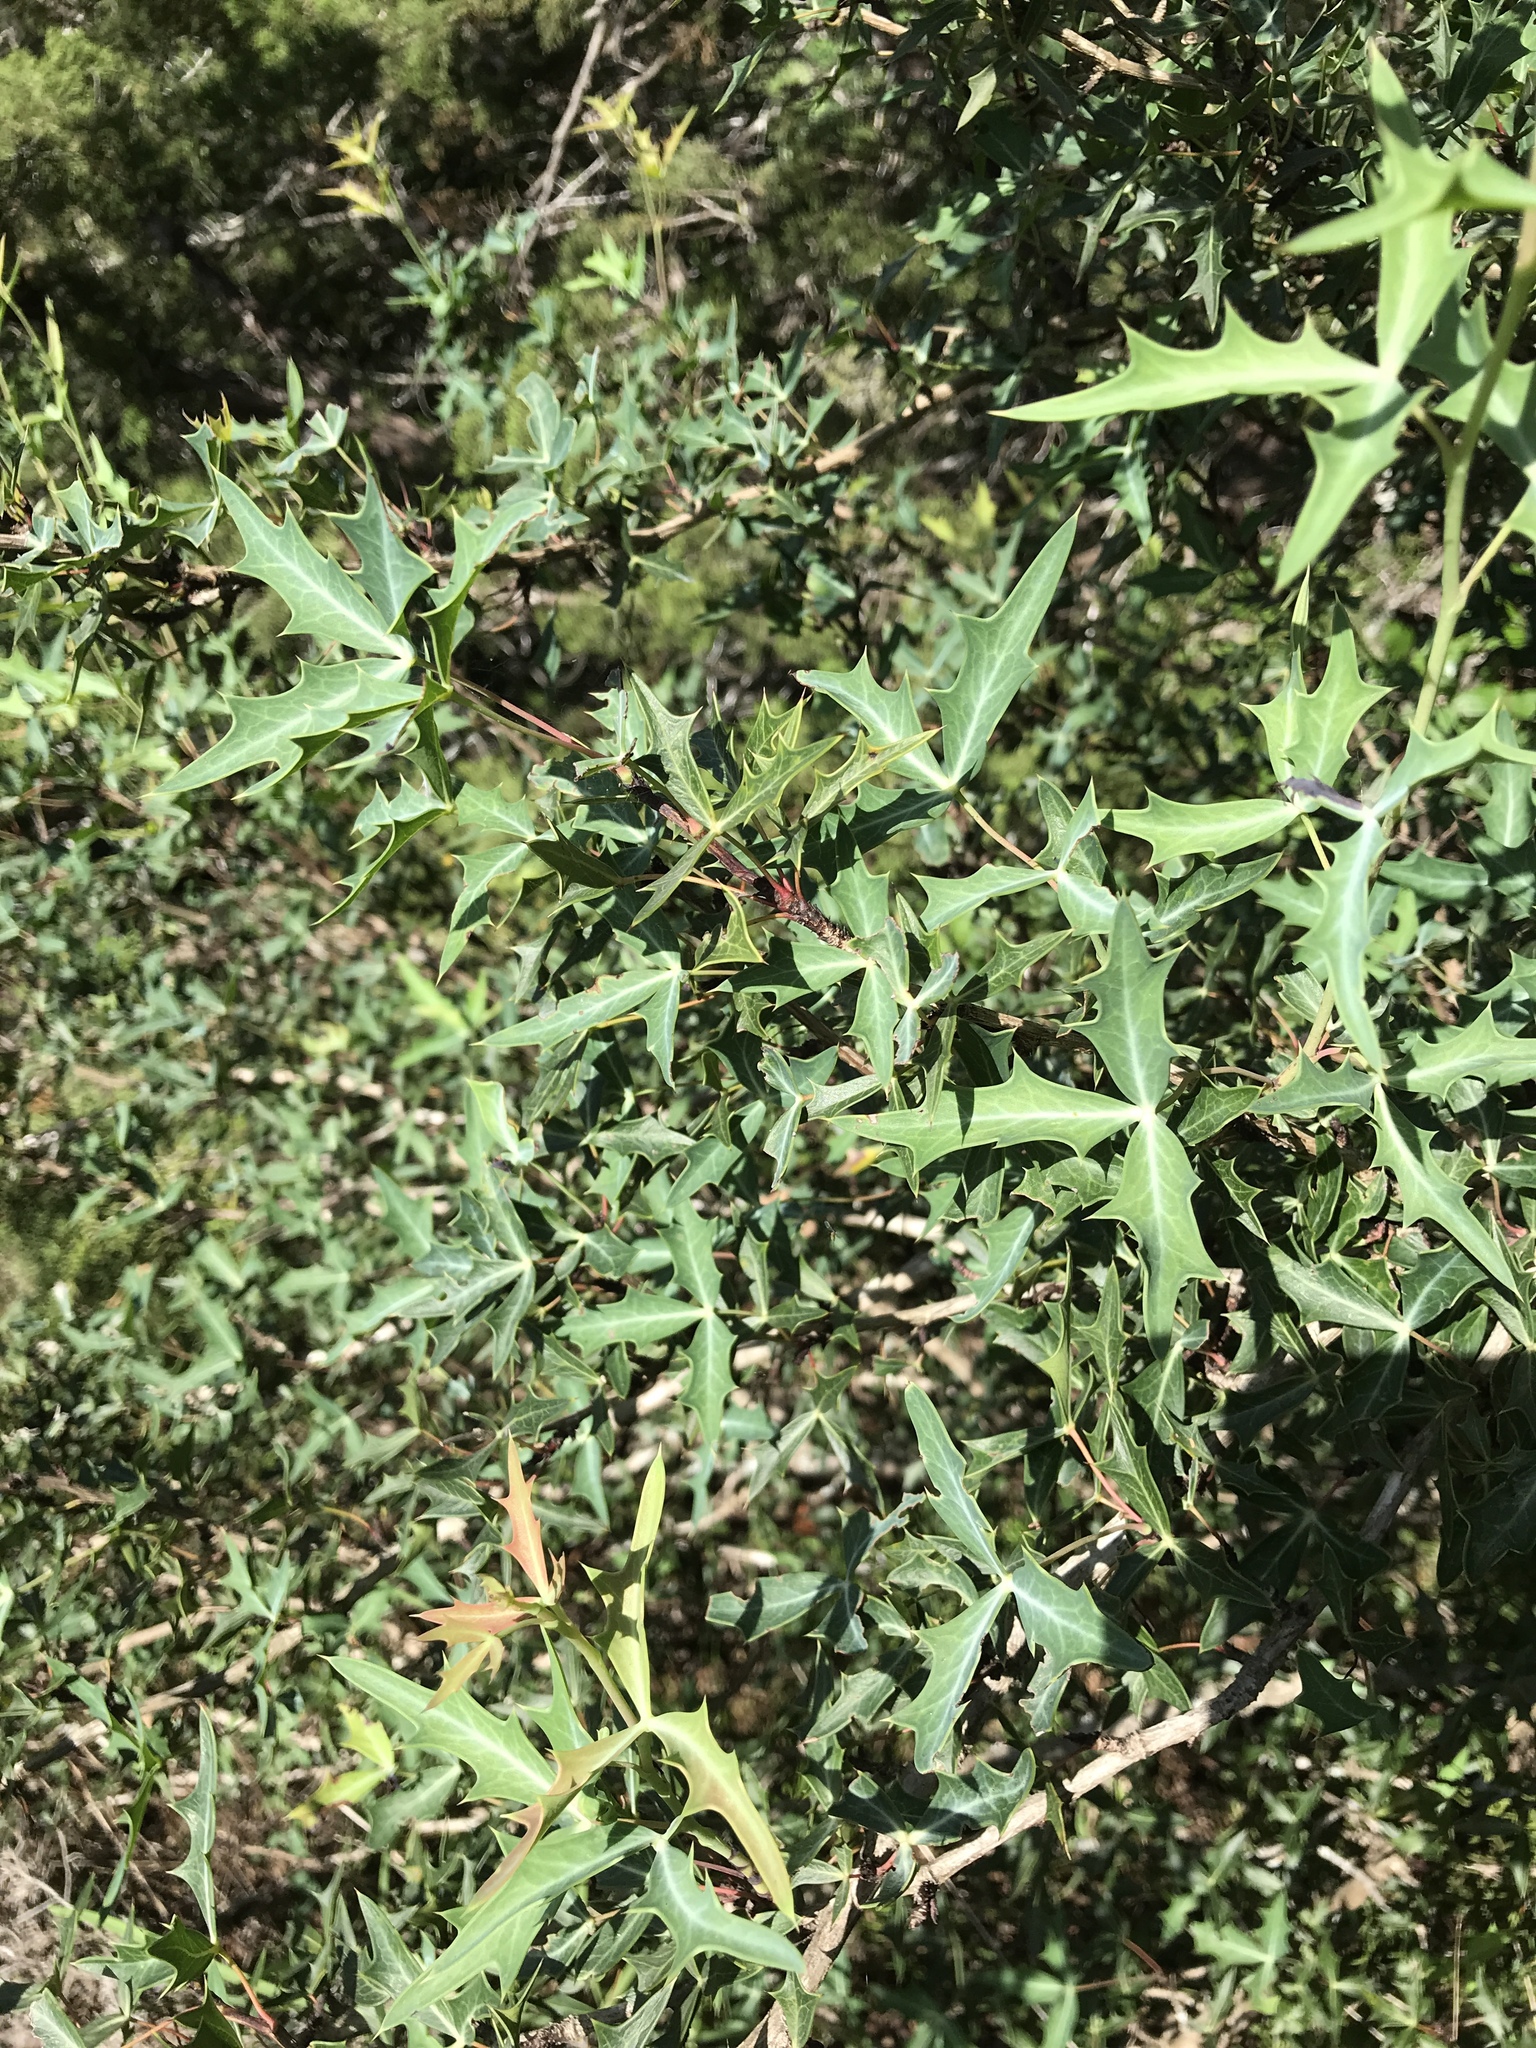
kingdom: Plantae
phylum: Tracheophyta
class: Magnoliopsida
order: Ranunculales
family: Berberidaceae
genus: Alloberberis
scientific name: Alloberberis trifoliolata
